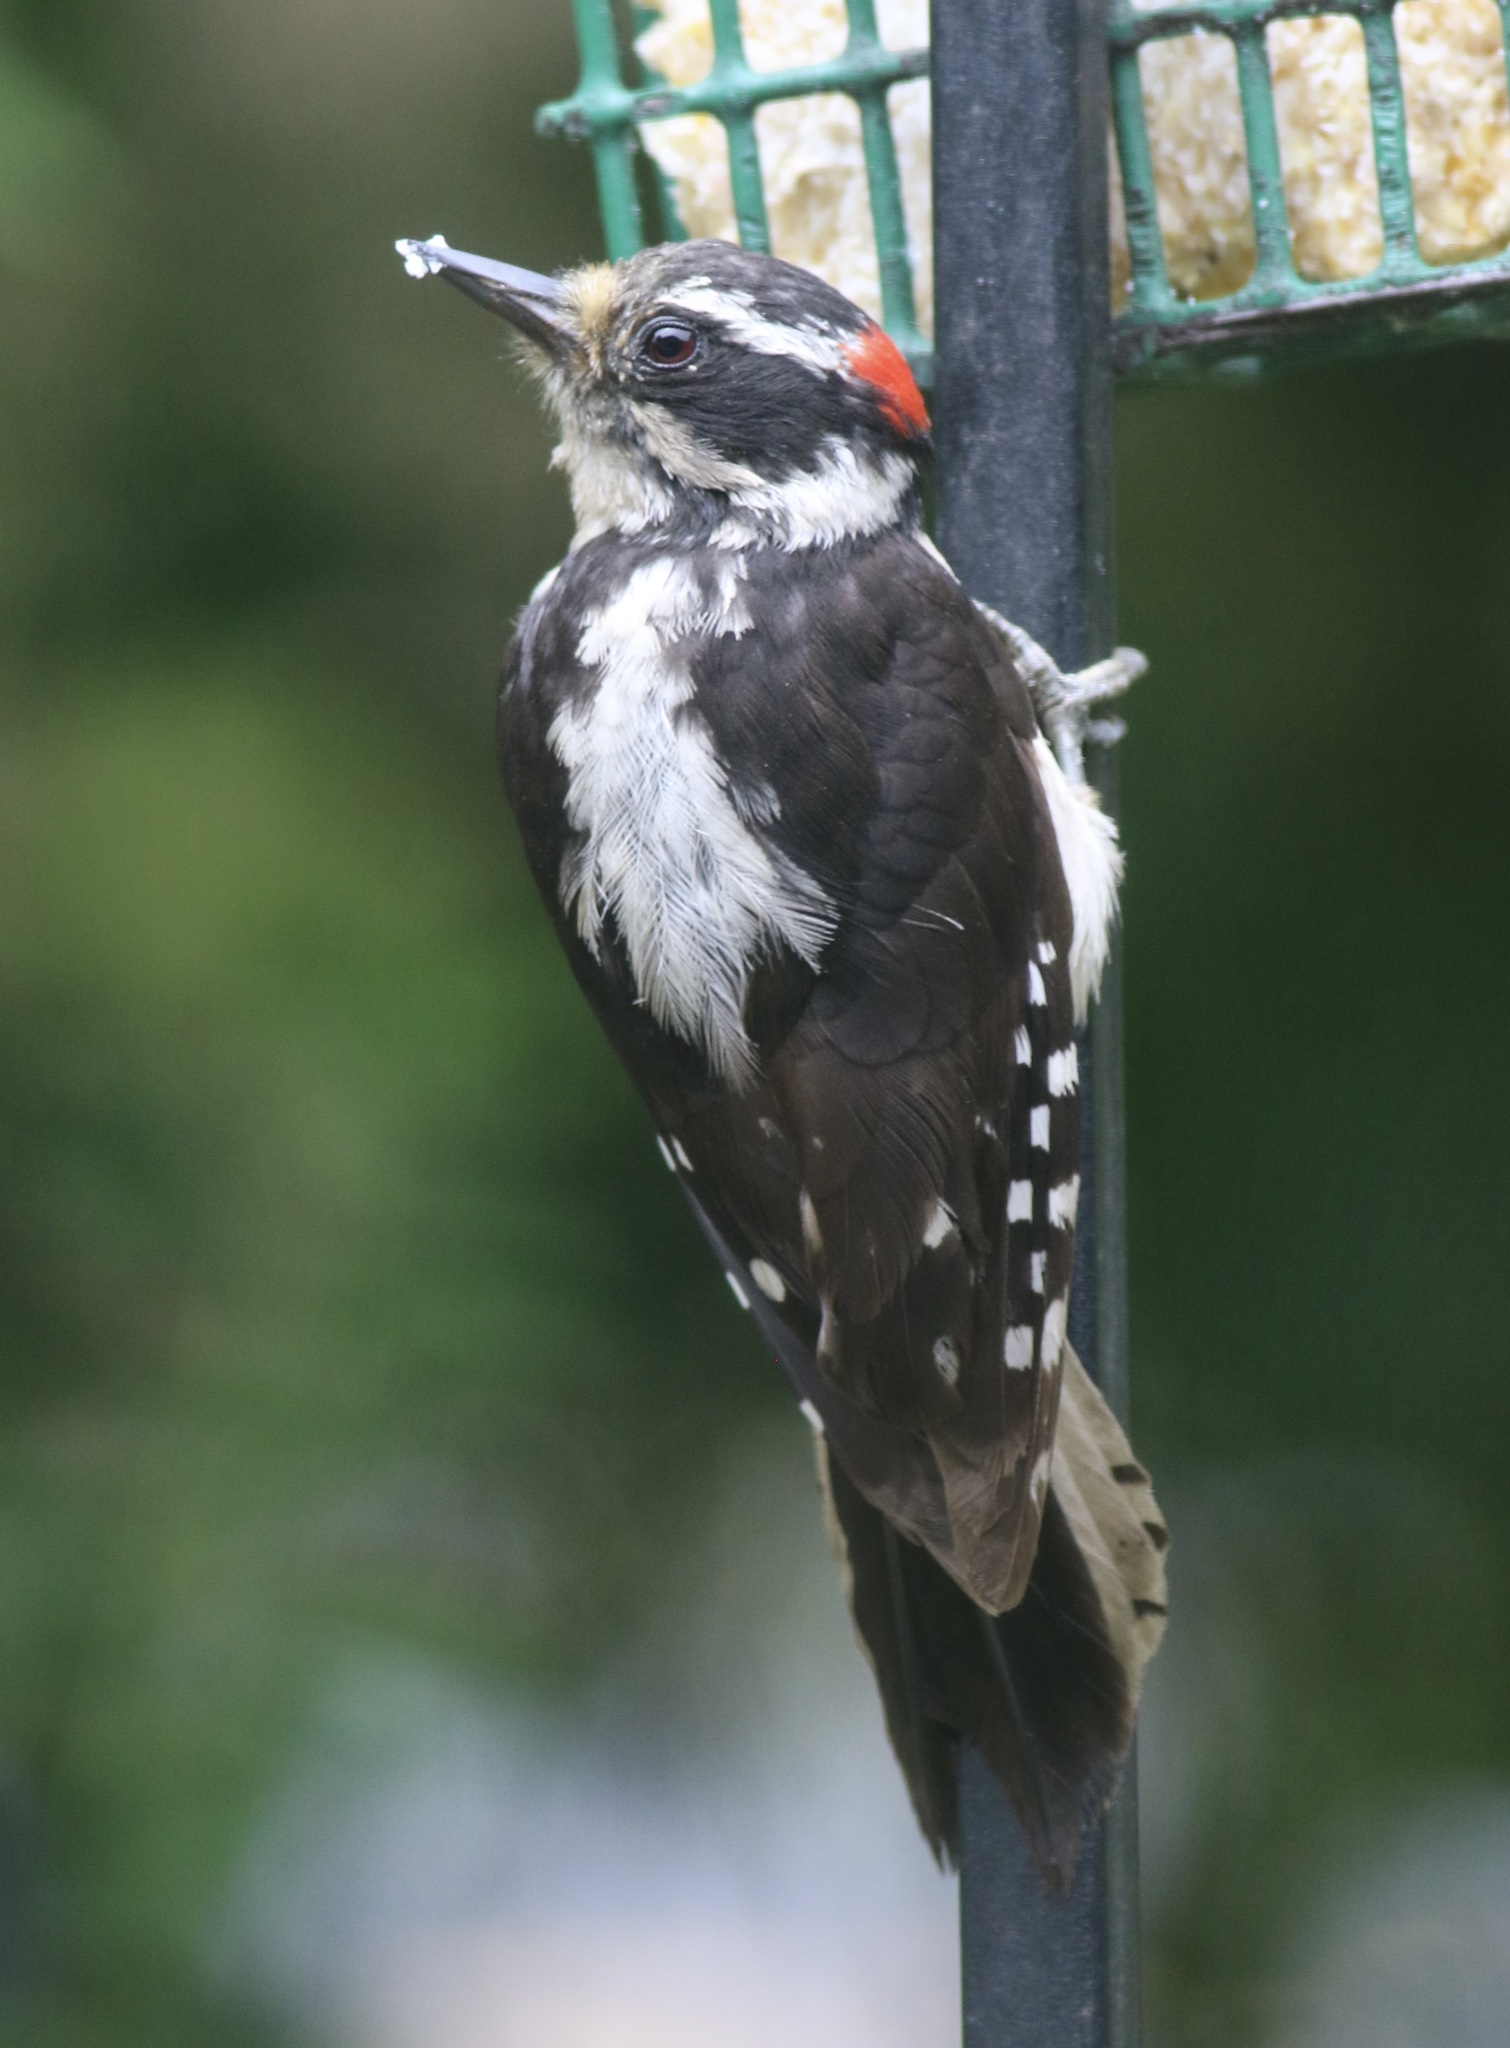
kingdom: Animalia
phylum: Chordata
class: Aves
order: Piciformes
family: Picidae
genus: Dryobates
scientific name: Dryobates pubescens
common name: Downy woodpecker
